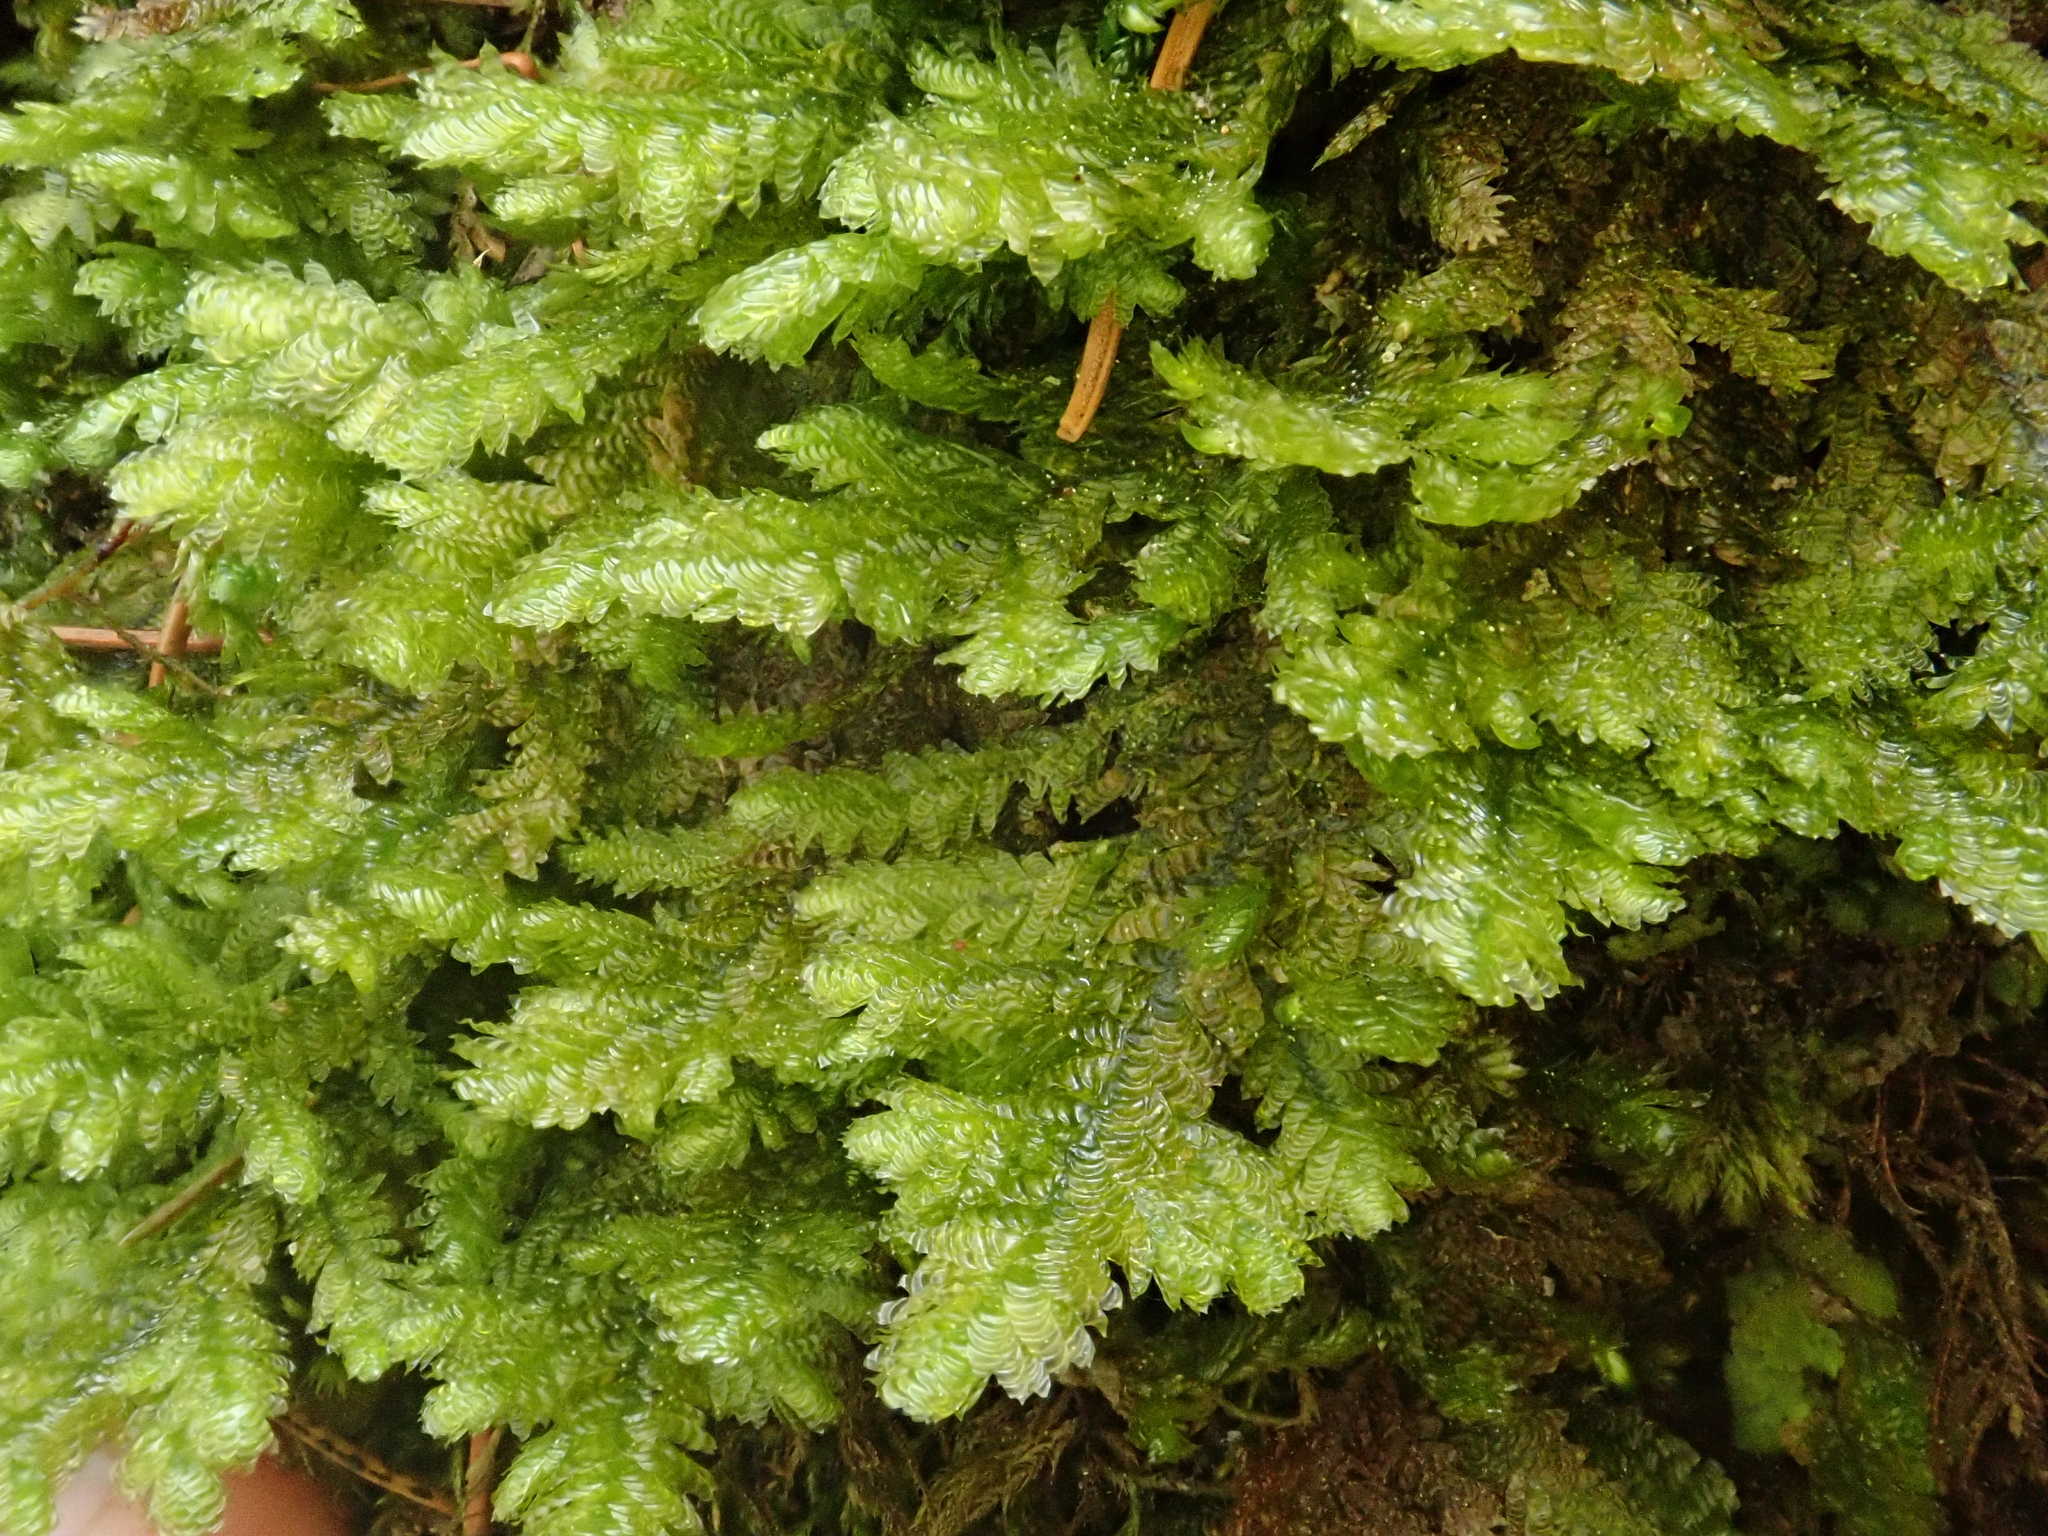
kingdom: Plantae
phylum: Bryophyta
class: Bryopsida
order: Hypnales
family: Neckeraceae
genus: Exsertotheca
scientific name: Exsertotheca crispa
